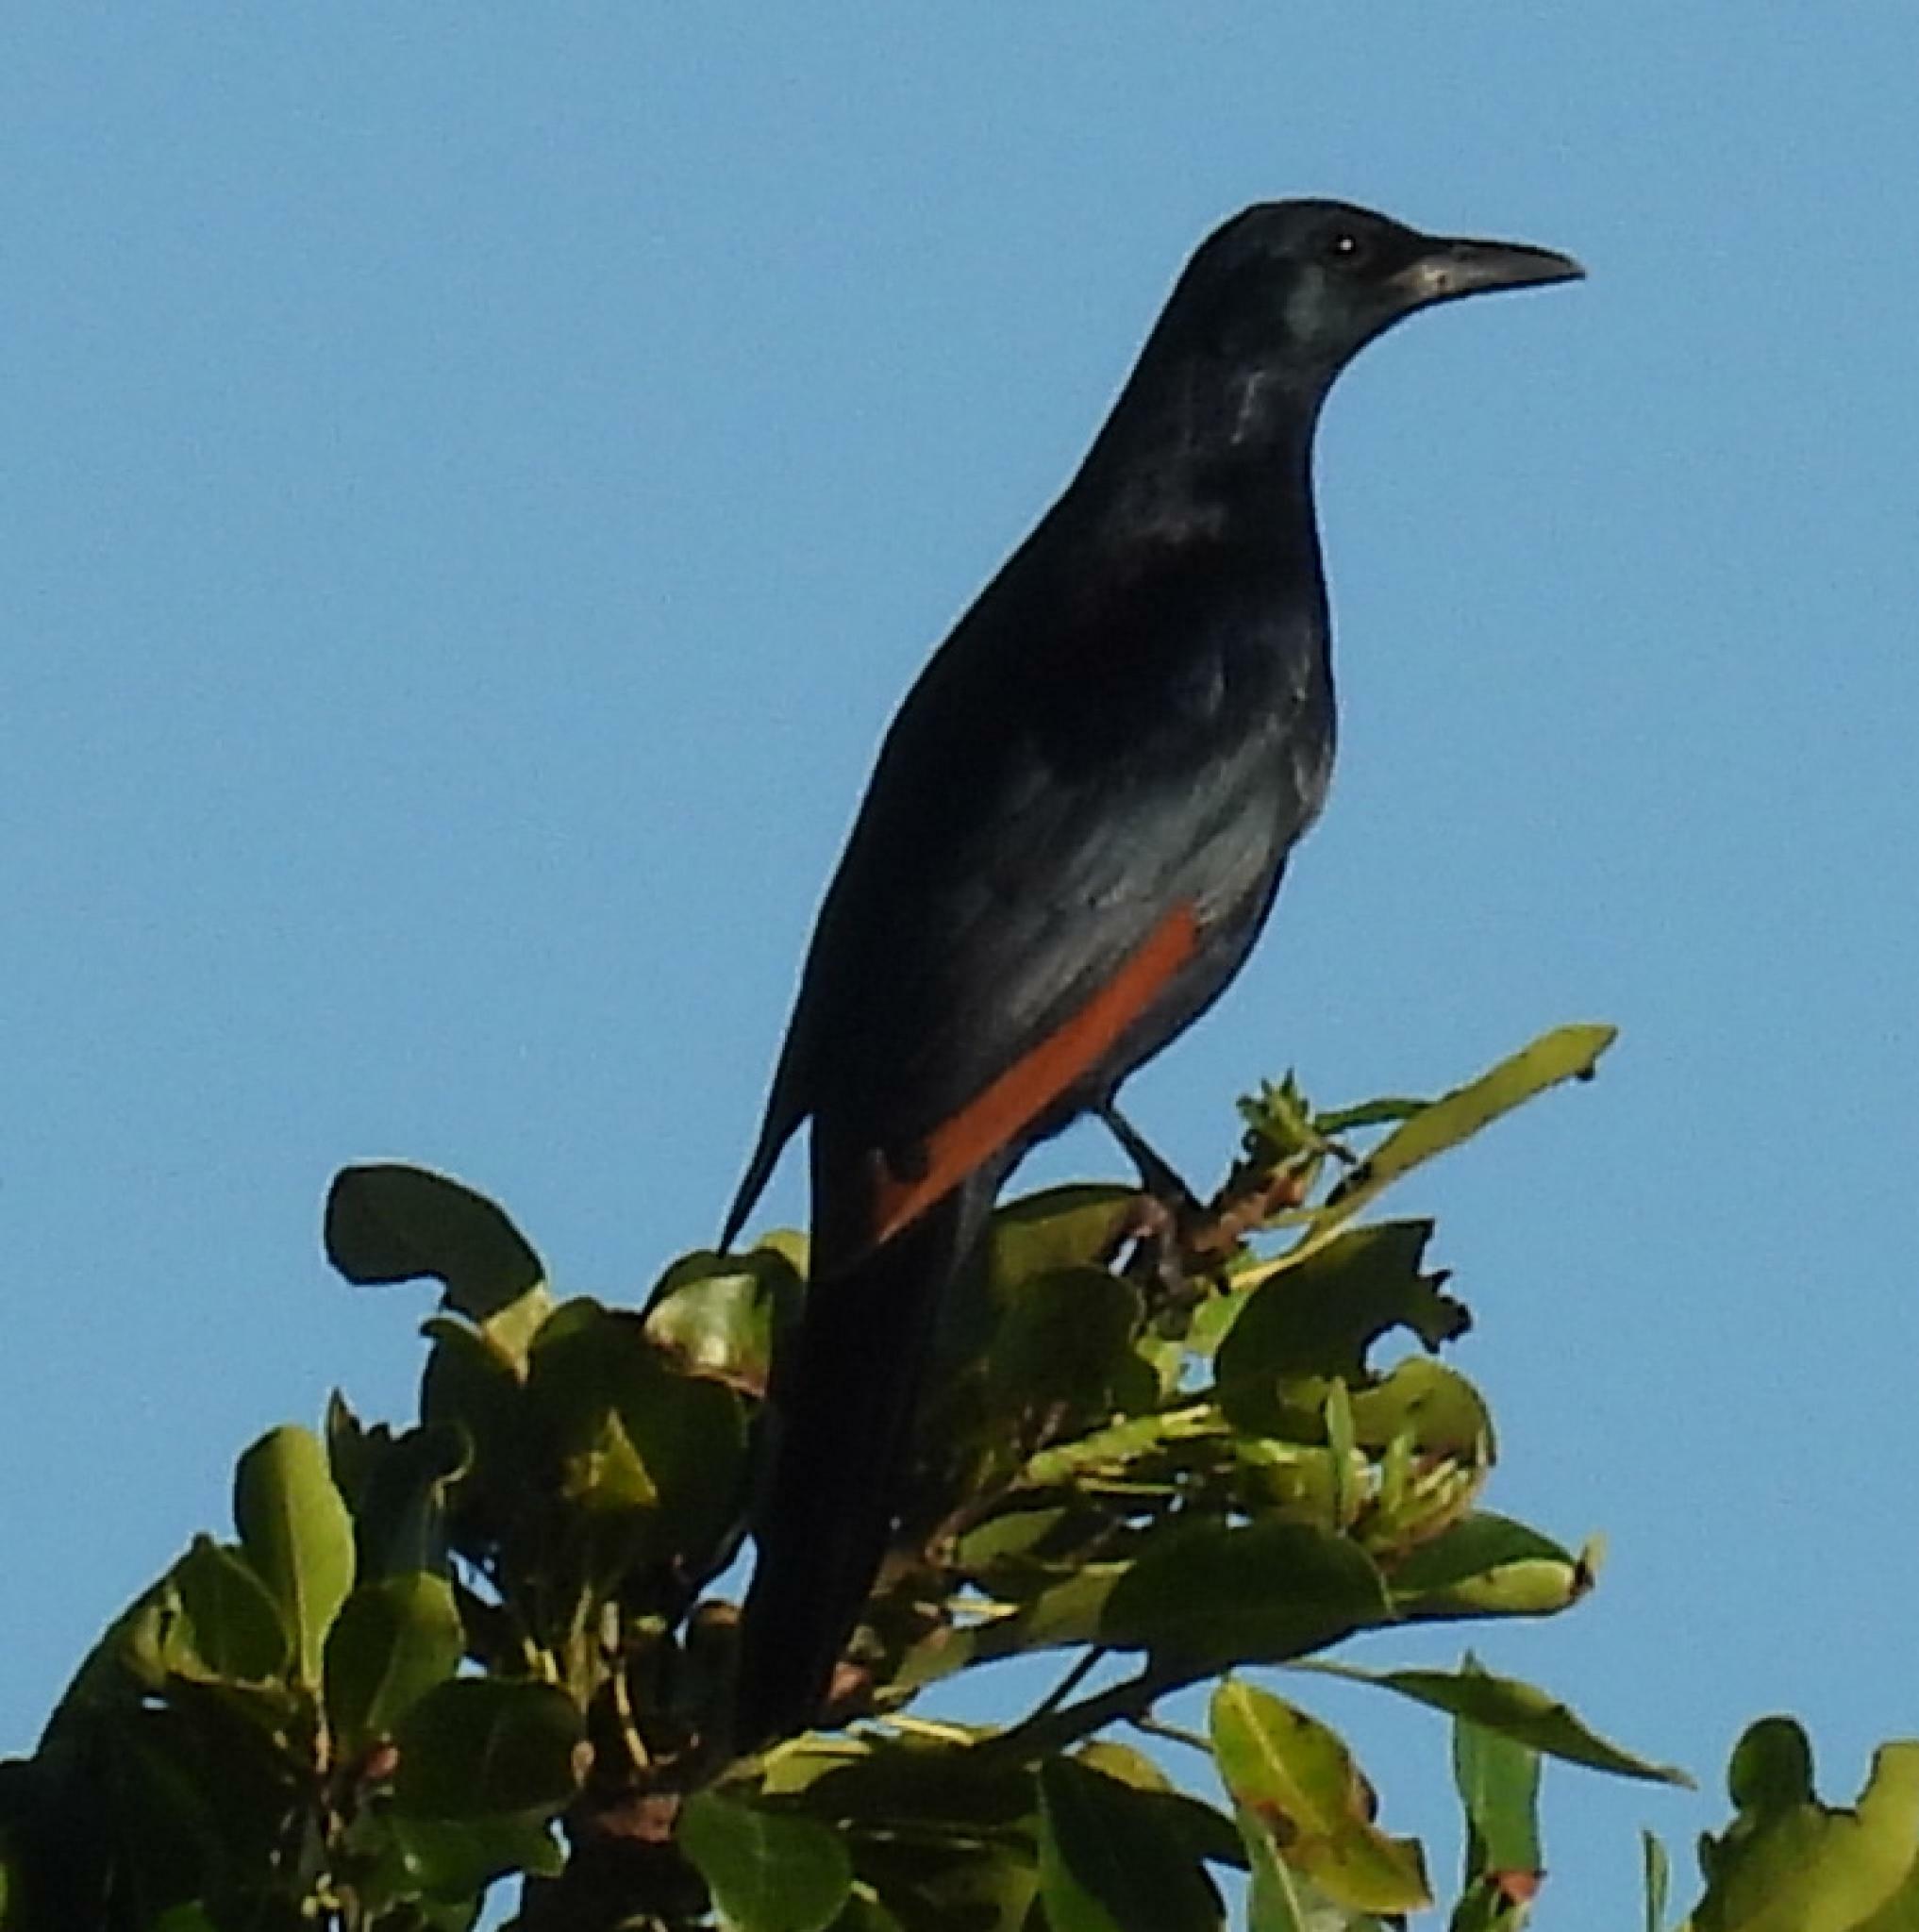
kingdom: Animalia
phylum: Chordata
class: Aves
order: Passeriformes
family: Sturnidae
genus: Onychognathus
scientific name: Onychognathus morio
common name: Red-winged starling
